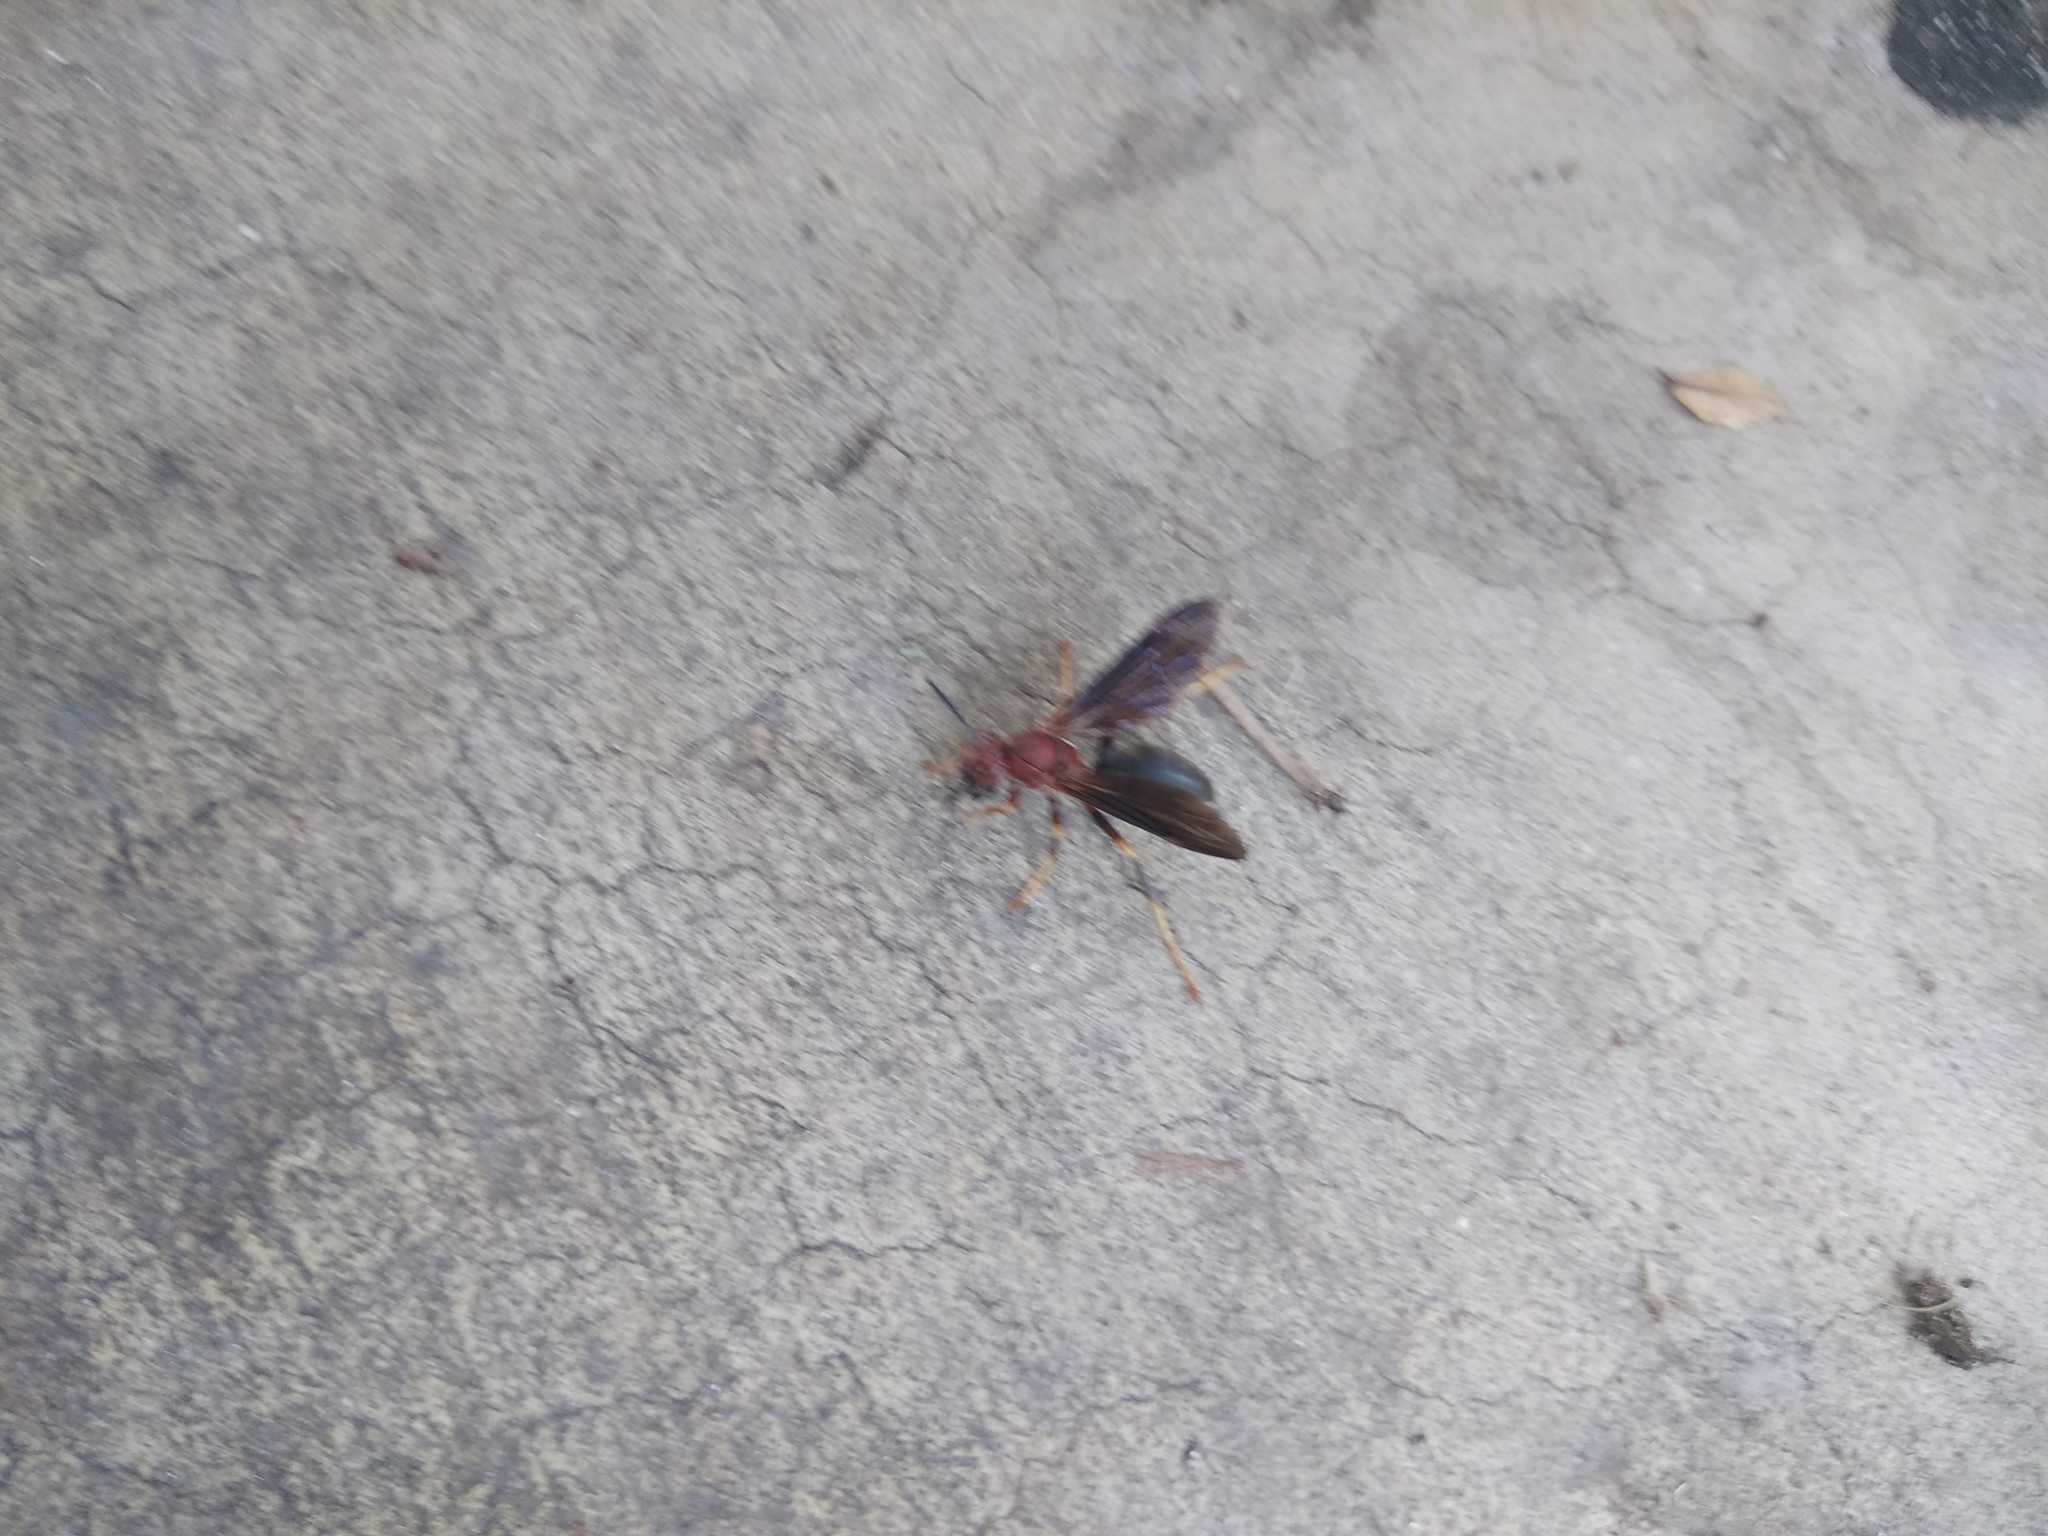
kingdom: Animalia
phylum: Arthropoda
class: Insecta
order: Hymenoptera
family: Eumenidae
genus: Polistes
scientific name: Polistes metricus
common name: Metric paper wasp
